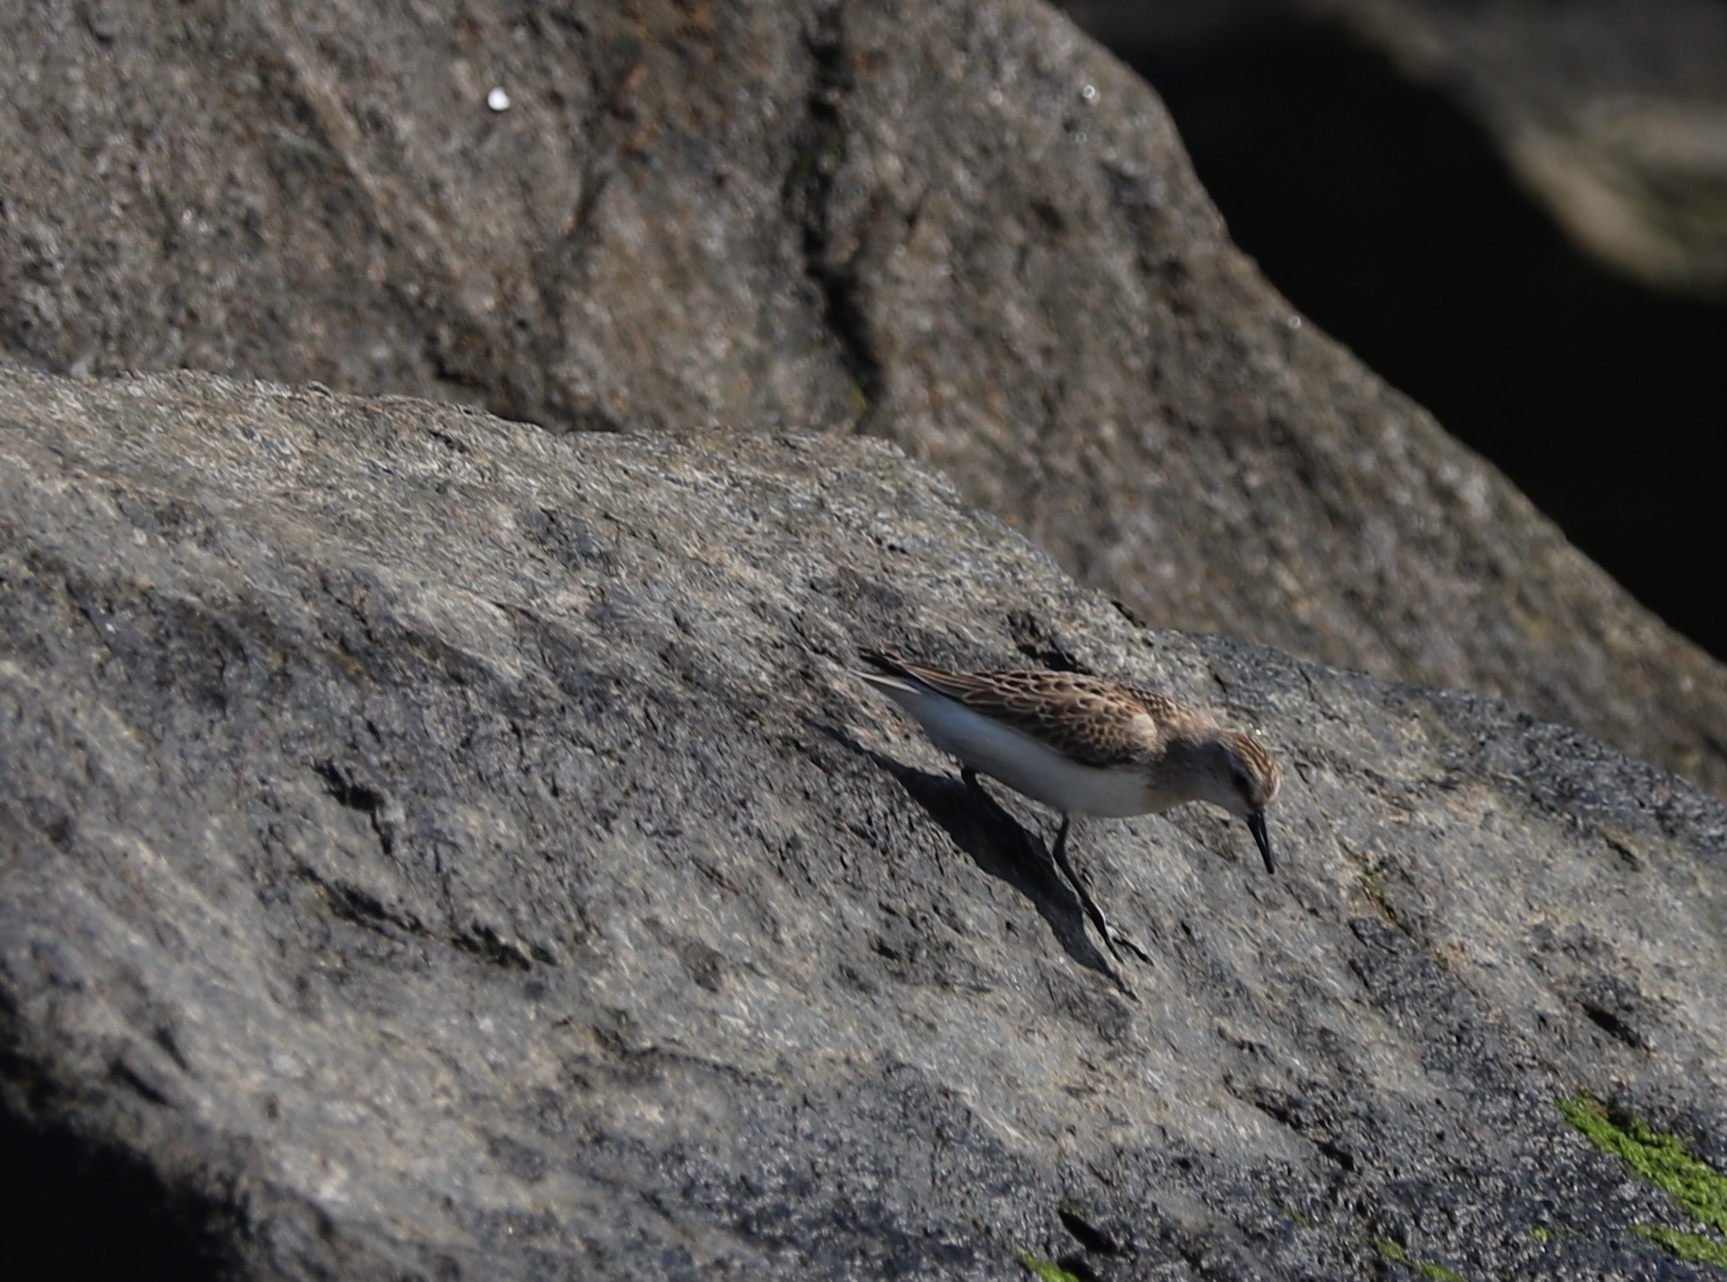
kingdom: Animalia
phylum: Chordata
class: Aves
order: Charadriiformes
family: Scolopacidae
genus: Calidris
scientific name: Calidris pusilla
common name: Semipalmated sandpiper
